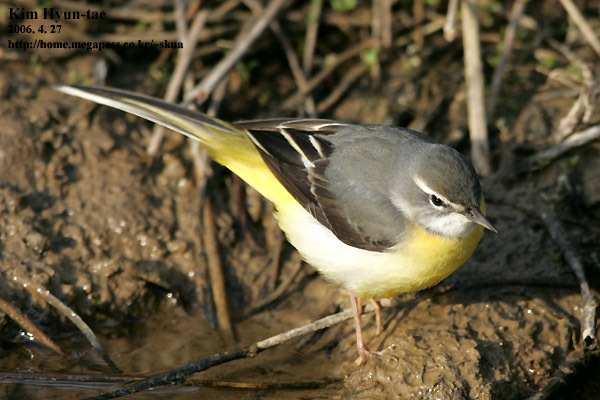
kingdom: Animalia
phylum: Chordata
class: Aves
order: Passeriformes
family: Motacillidae
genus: Motacilla
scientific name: Motacilla cinerea
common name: Grey wagtail
